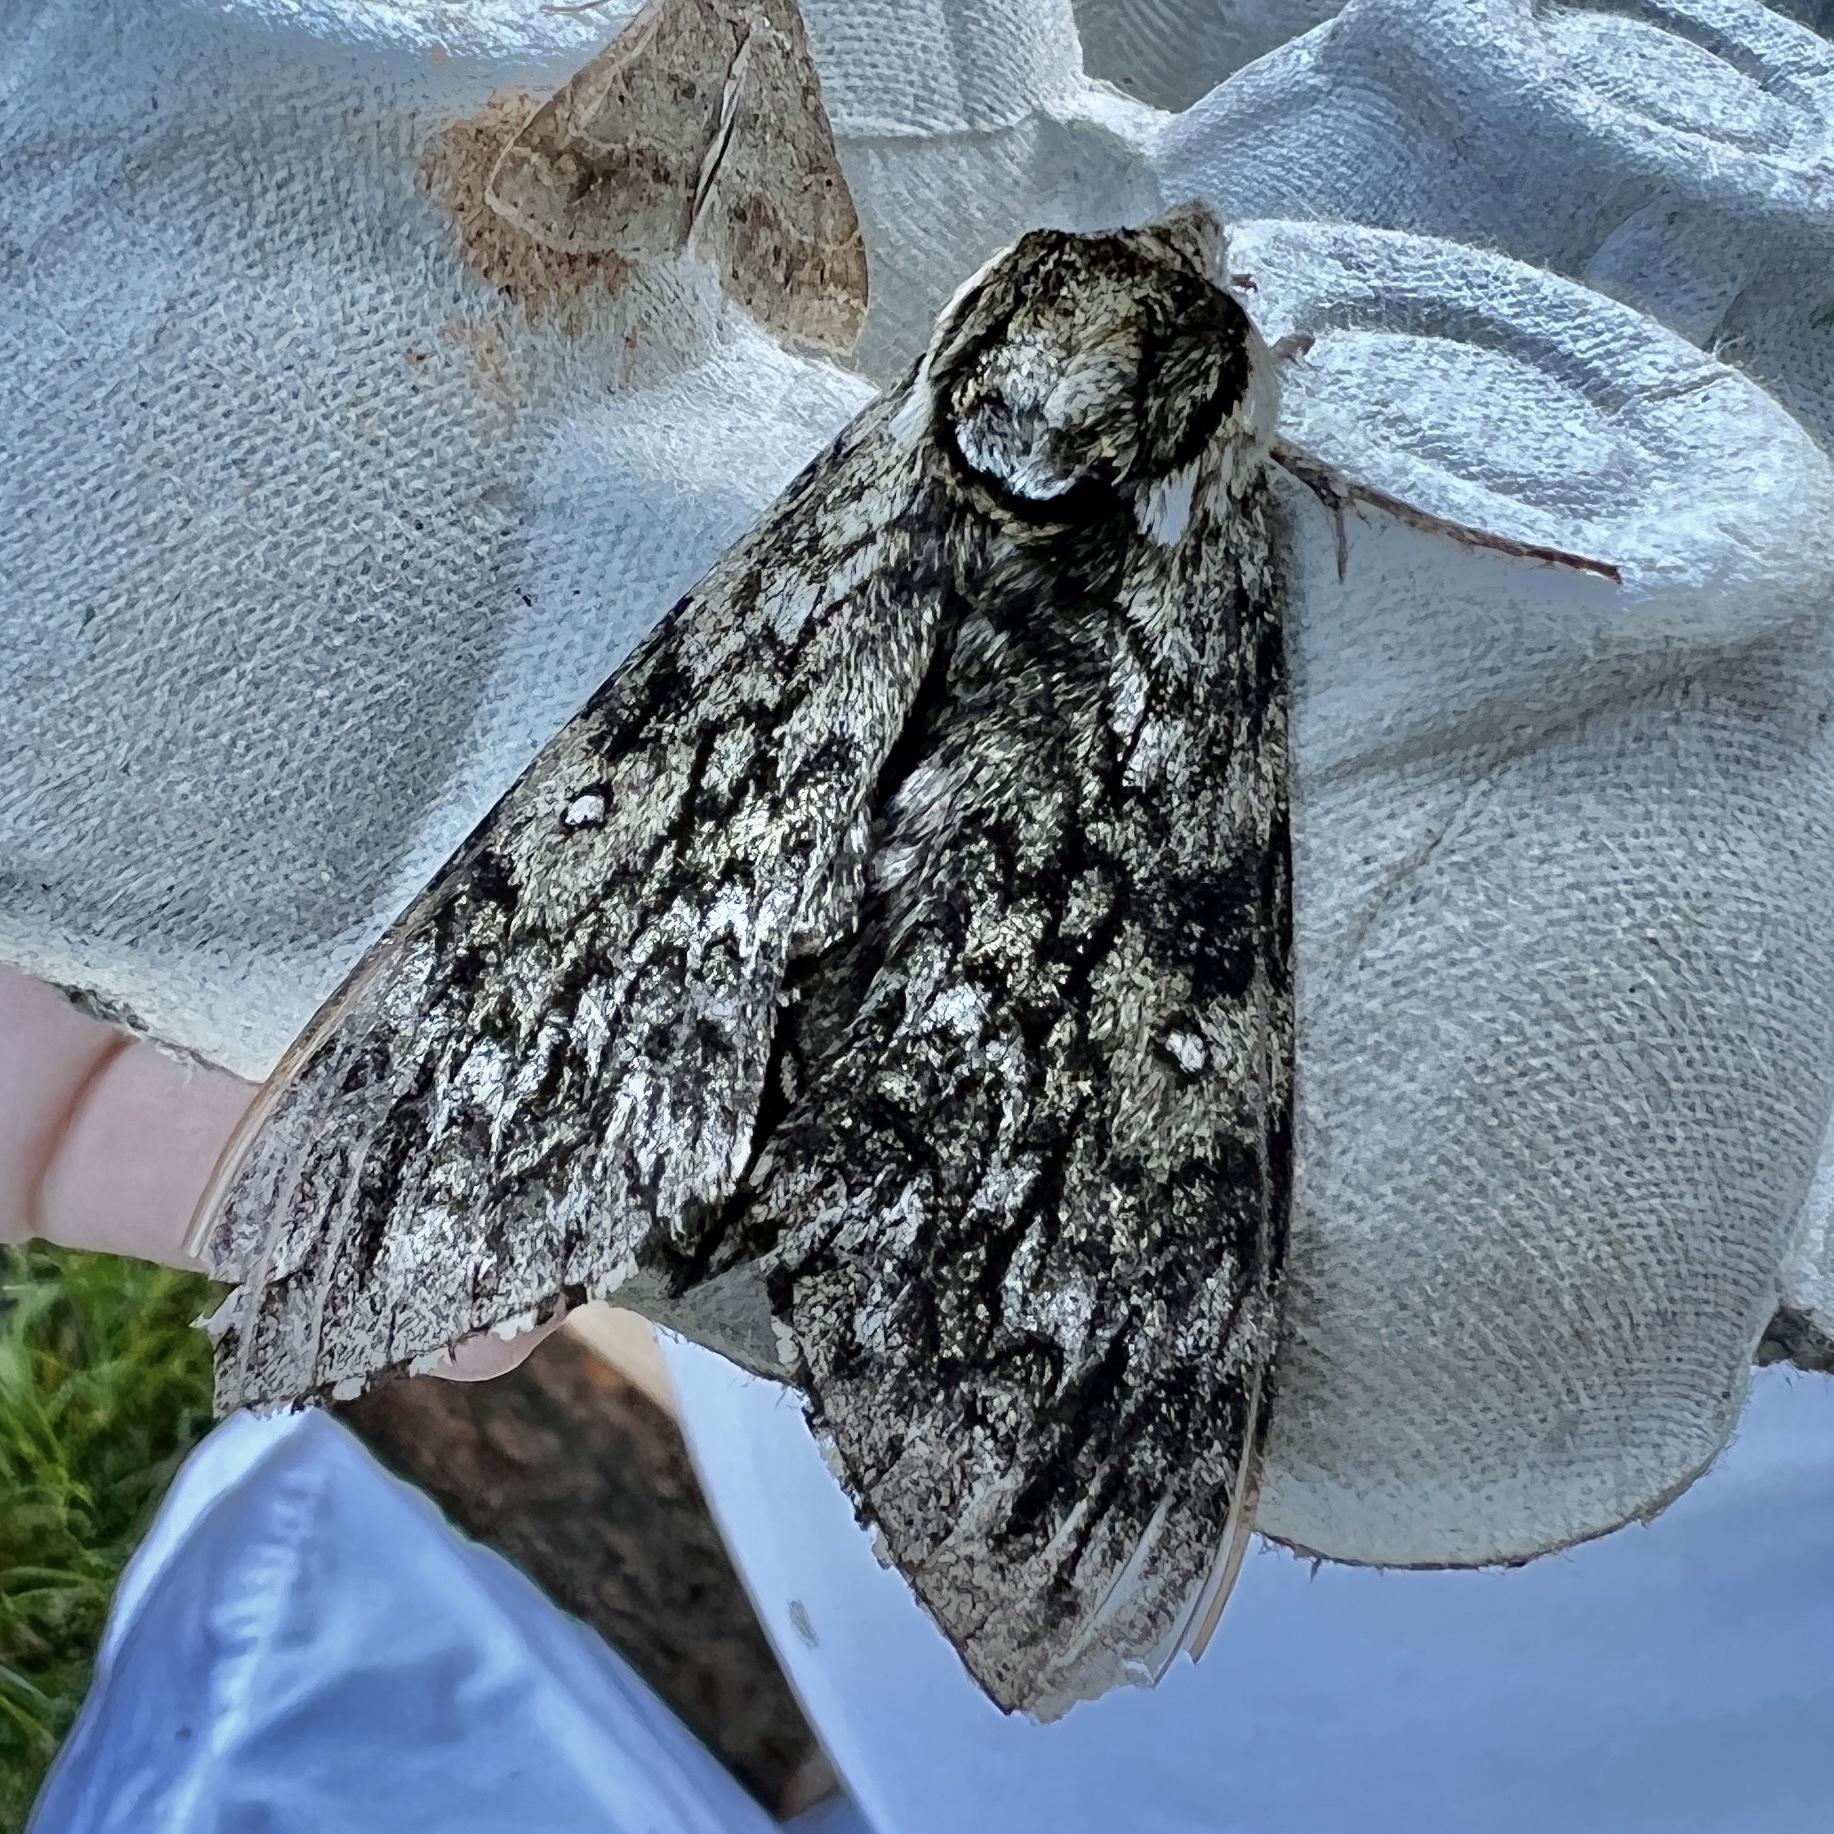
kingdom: Animalia
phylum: Arthropoda
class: Insecta
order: Lepidoptera
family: Sphingidae
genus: Ceratomia
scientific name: Ceratomia undulosa
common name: Waved sphinx
